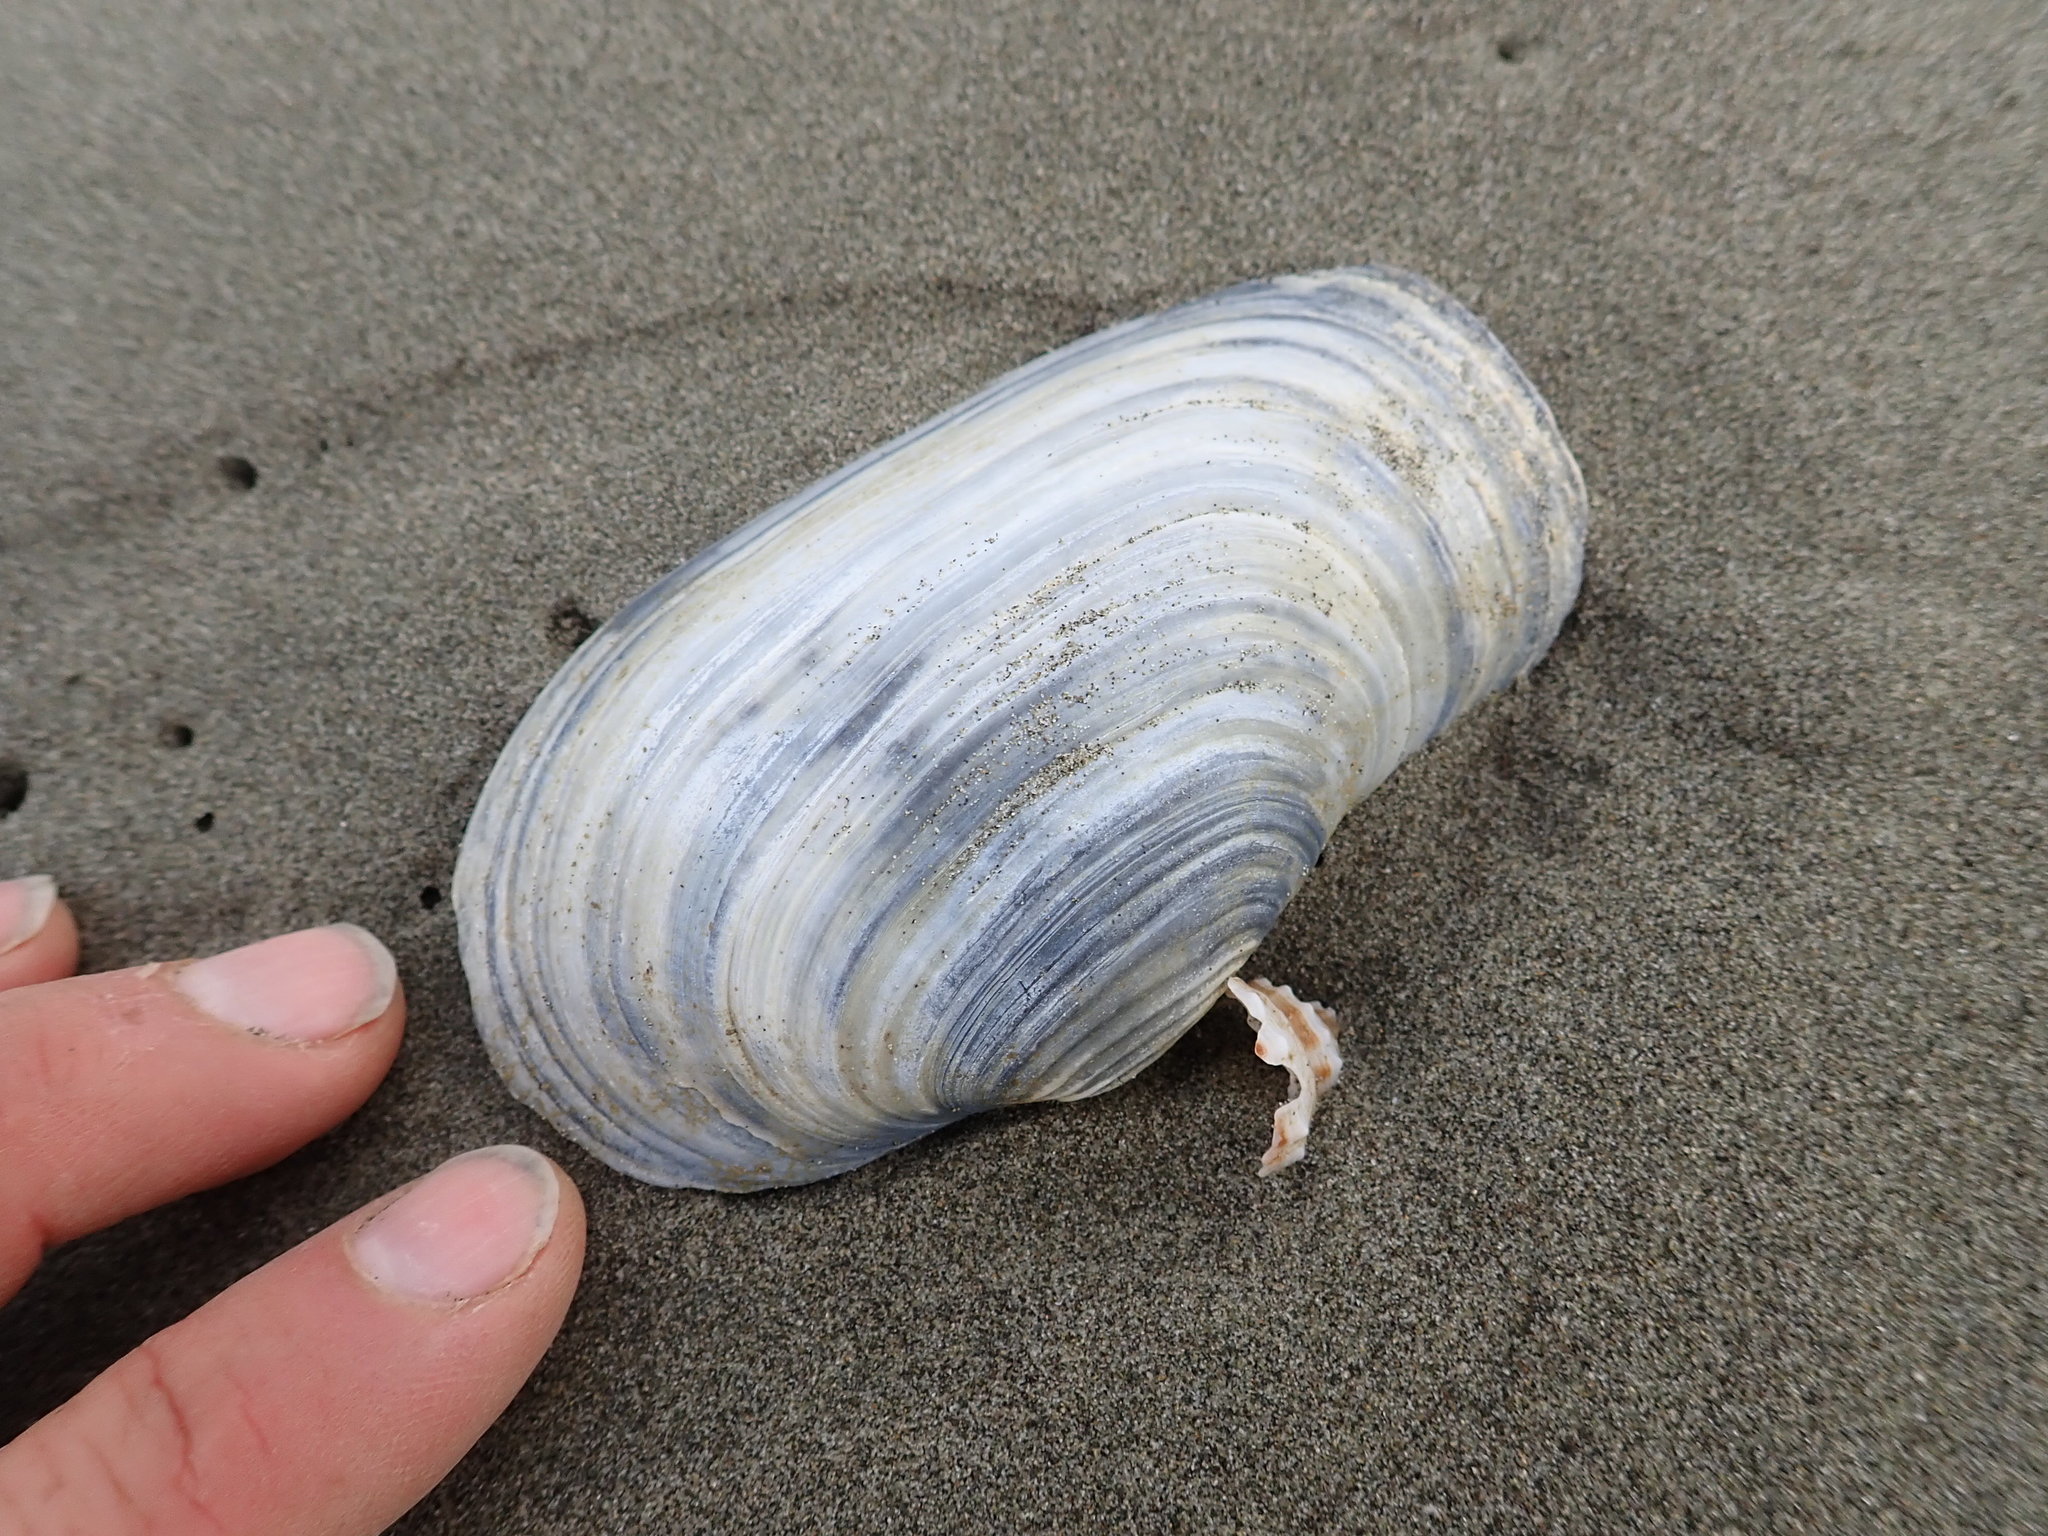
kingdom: Animalia
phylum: Mollusca
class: Bivalvia
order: Adapedonta
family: Hiatellidae
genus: Panopea
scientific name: Panopea zelandica
